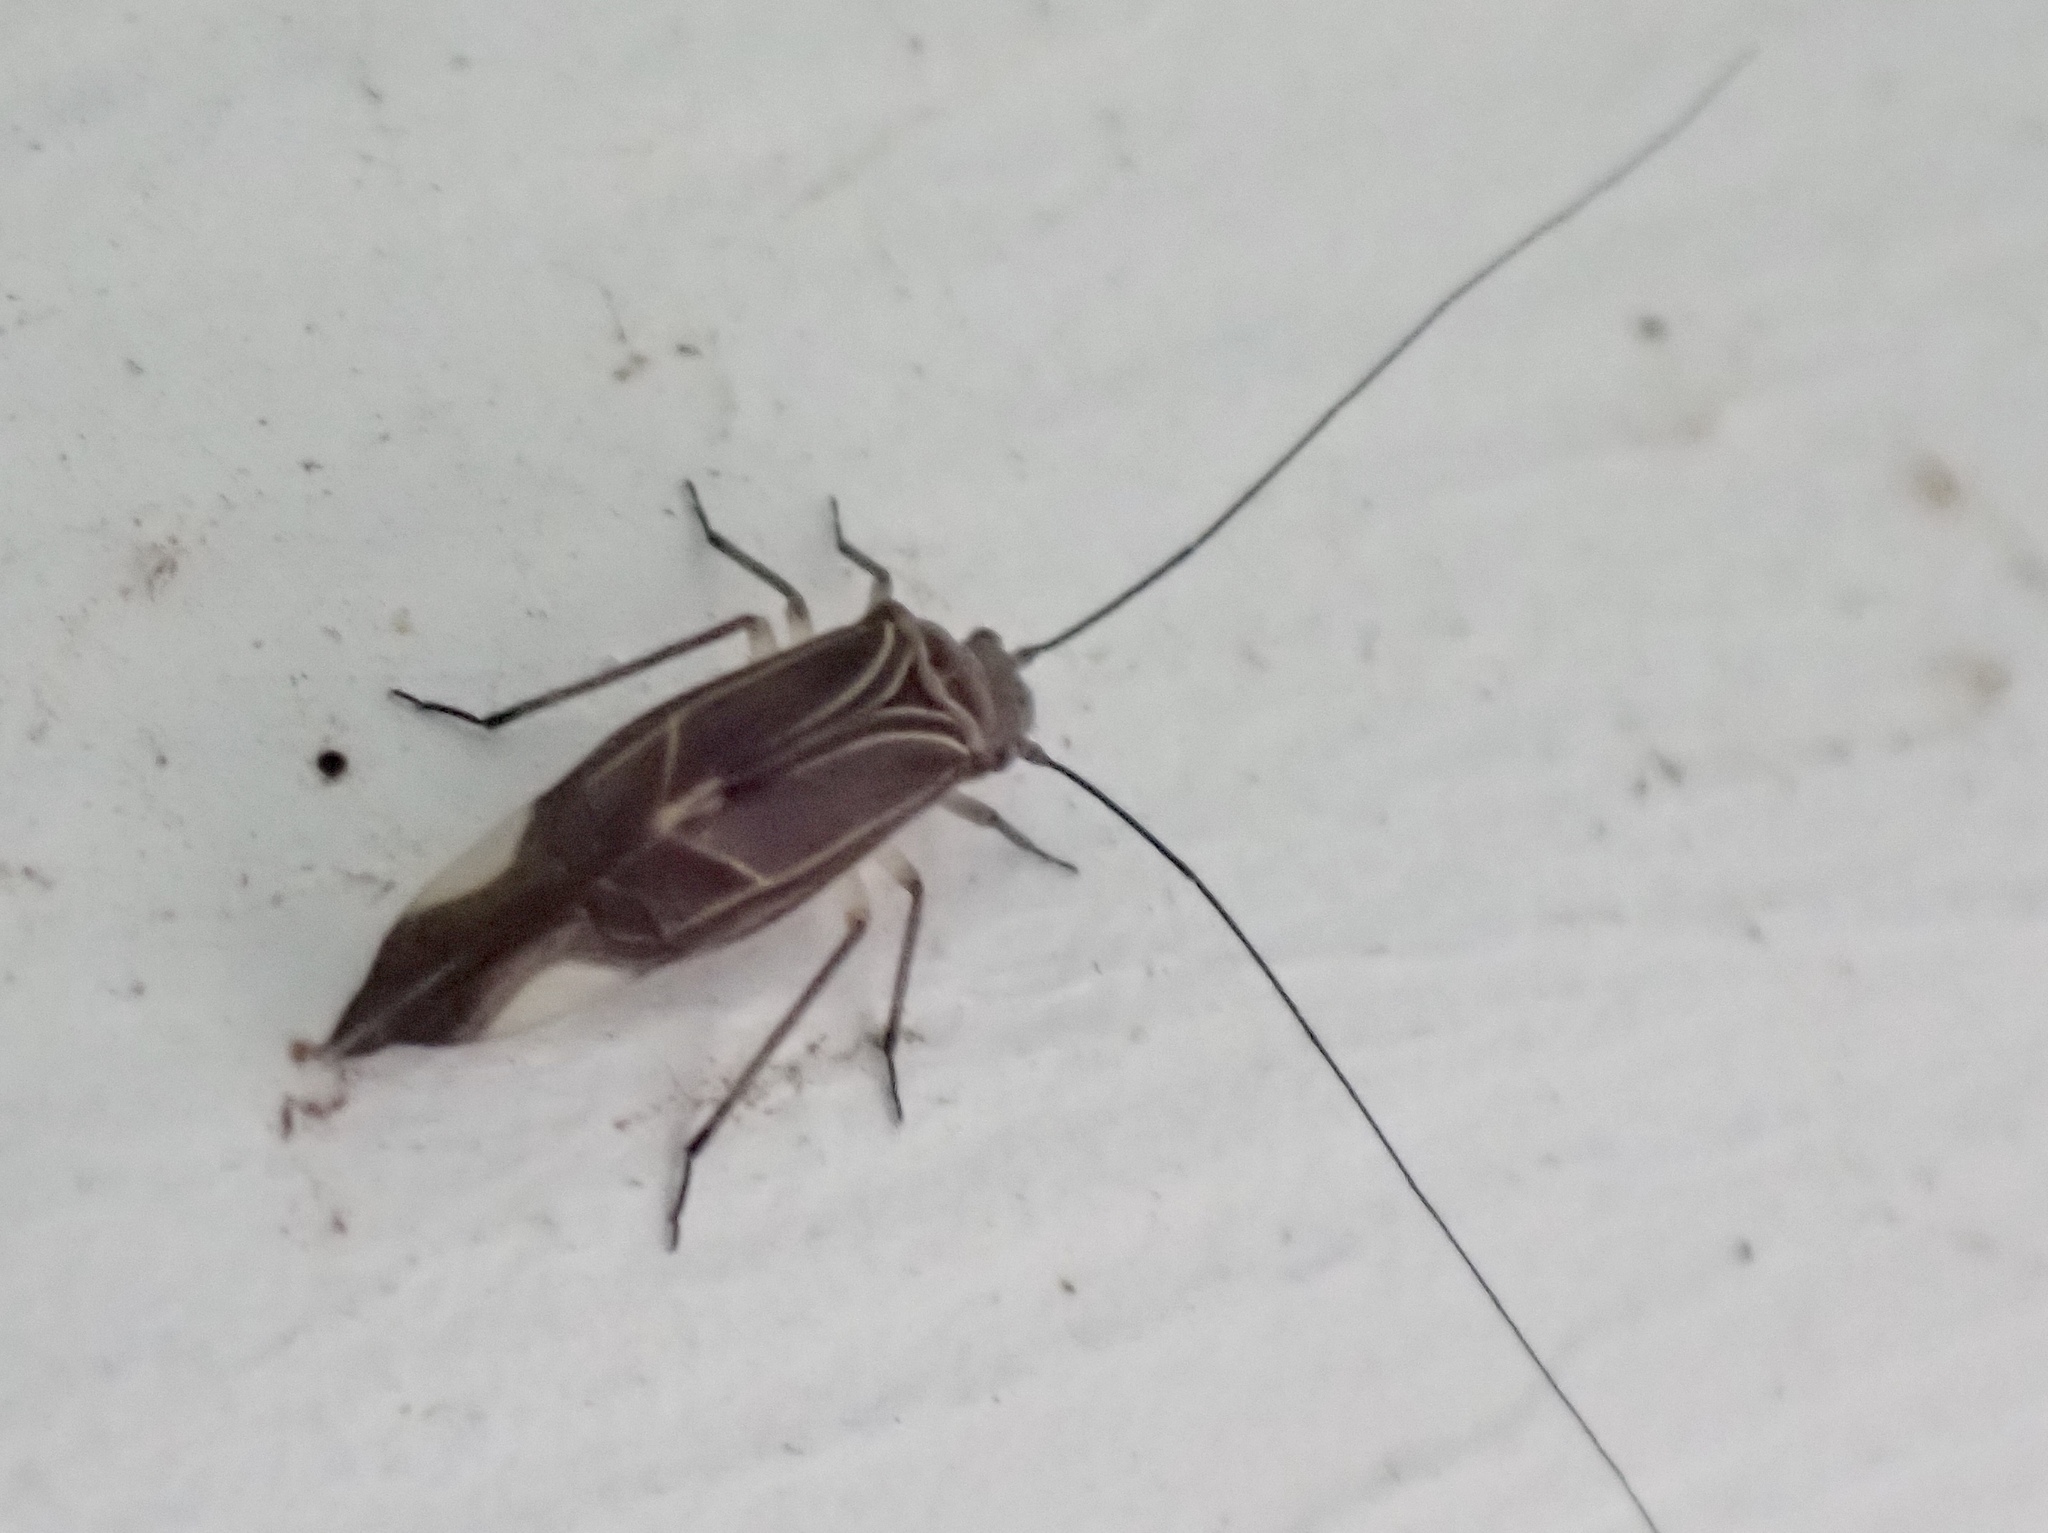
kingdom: Animalia
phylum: Arthropoda
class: Insecta
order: Psocodea
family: Psocidae
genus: Cerastipsocus
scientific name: Cerastipsocus venosus
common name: Tree cattle
